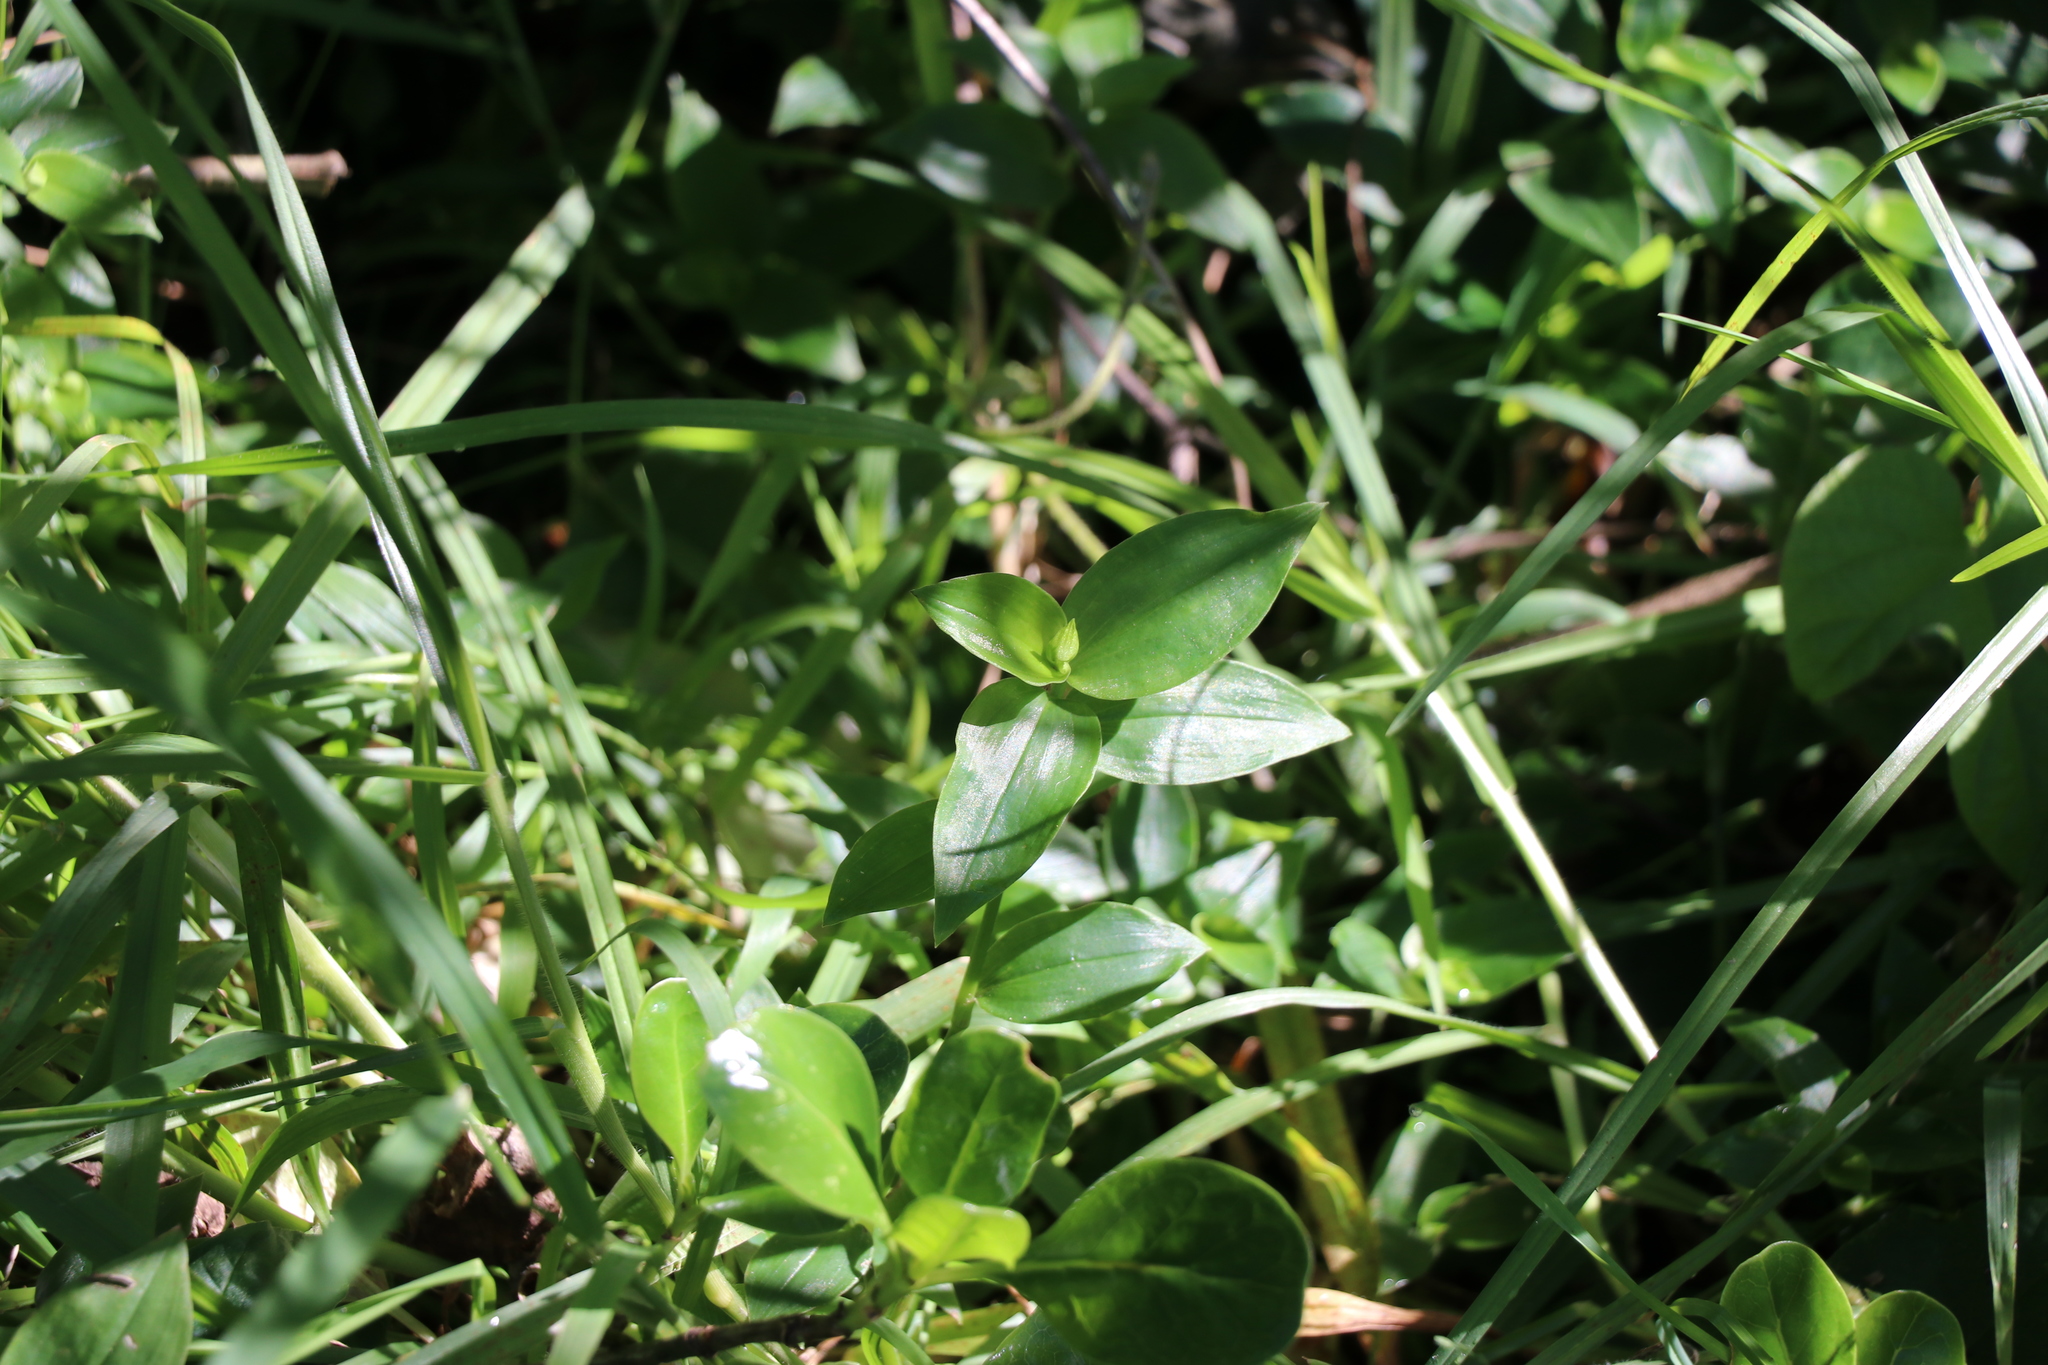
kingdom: Plantae
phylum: Tracheophyta
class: Liliopsida
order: Commelinales
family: Commelinaceae
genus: Tradescantia
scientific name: Tradescantia fluminensis
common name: Wandering-jew
